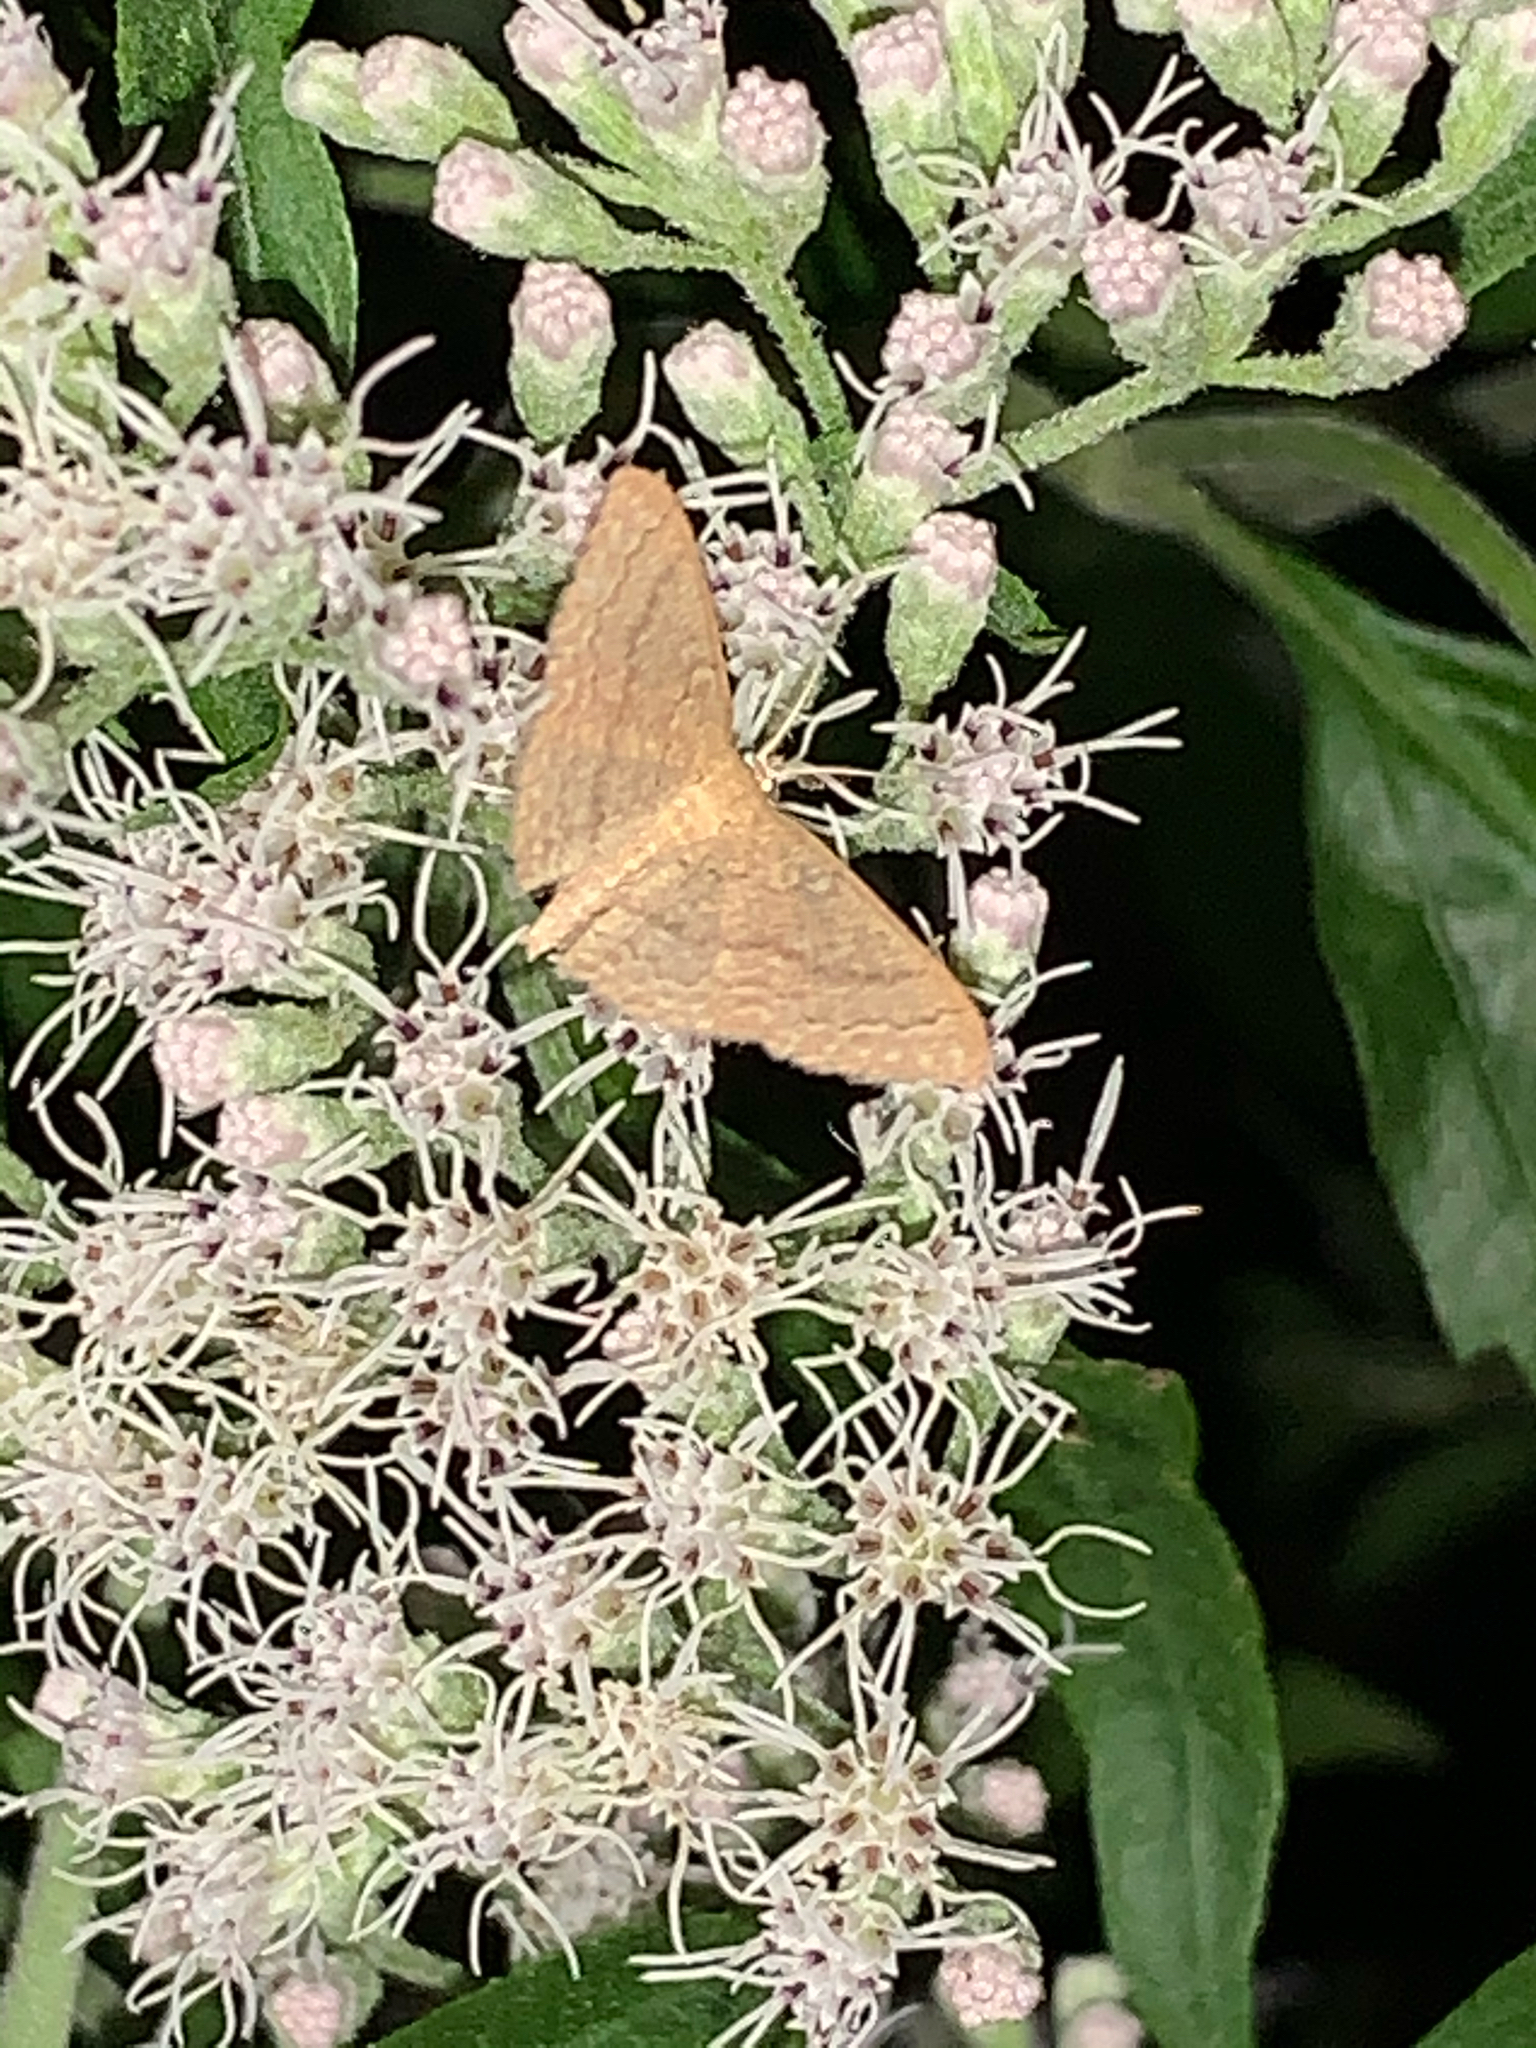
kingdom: Animalia
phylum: Arthropoda
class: Insecta
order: Lepidoptera
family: Geometridae
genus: Pleuroprucha
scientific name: Pleuroprucha insulsaria
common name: Common tan wave
